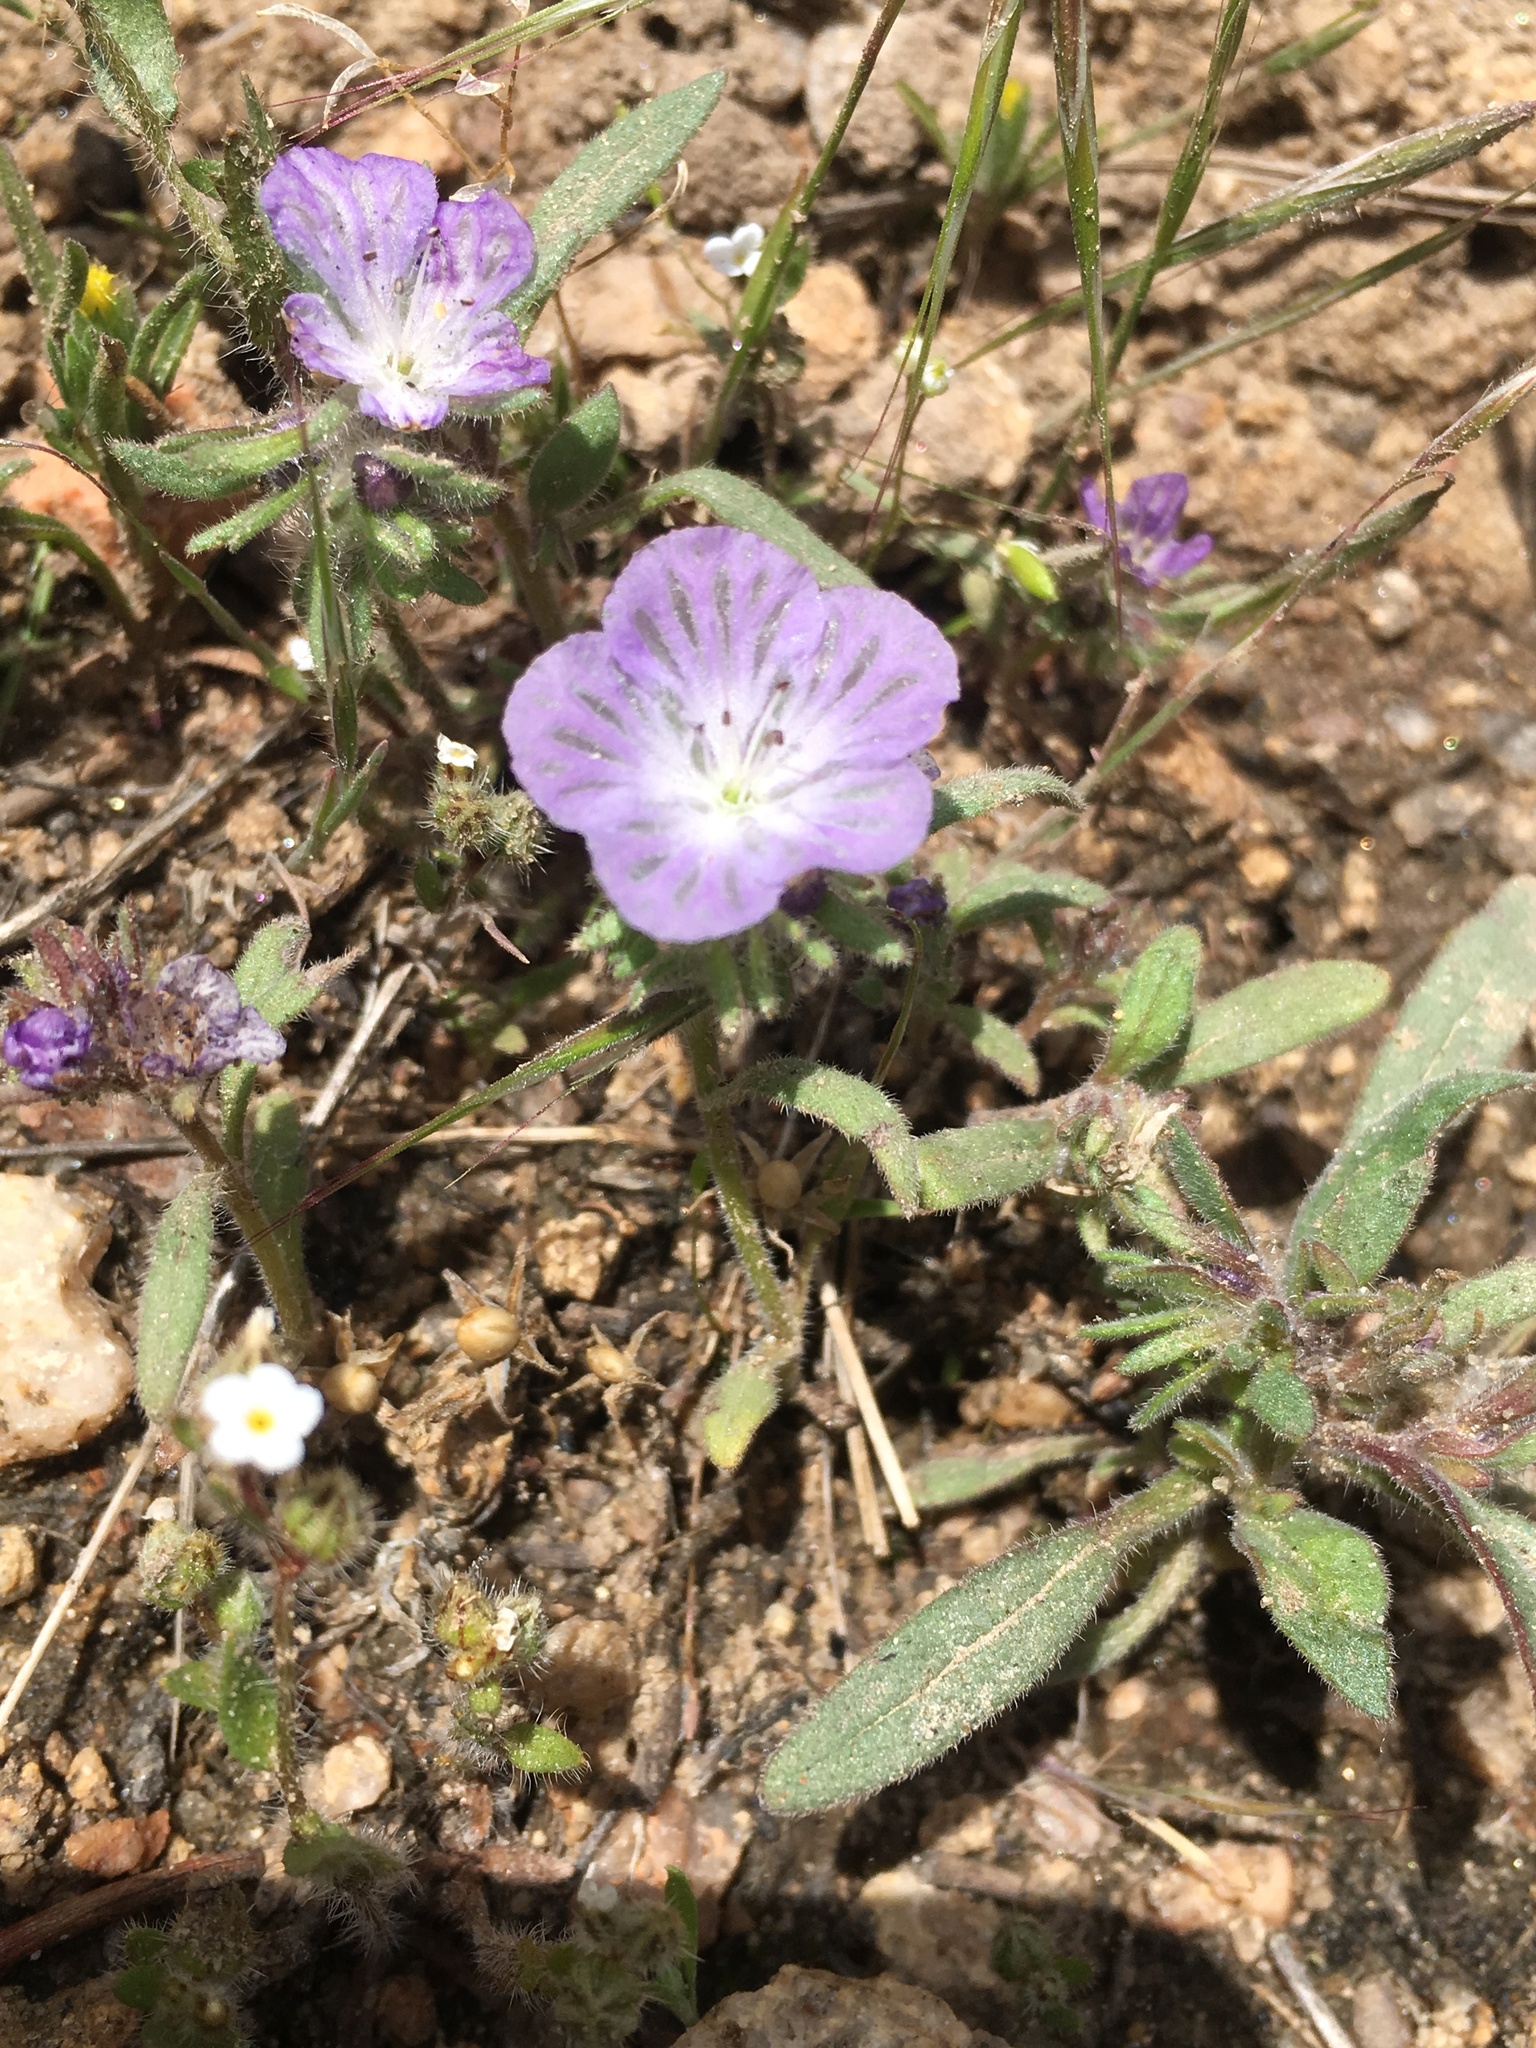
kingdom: Plantae
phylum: Tracheophyta
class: Magnoliopsida
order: Boraginales
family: Hydrophyllaceae
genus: Phacelia
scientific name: Phacelia exilis
